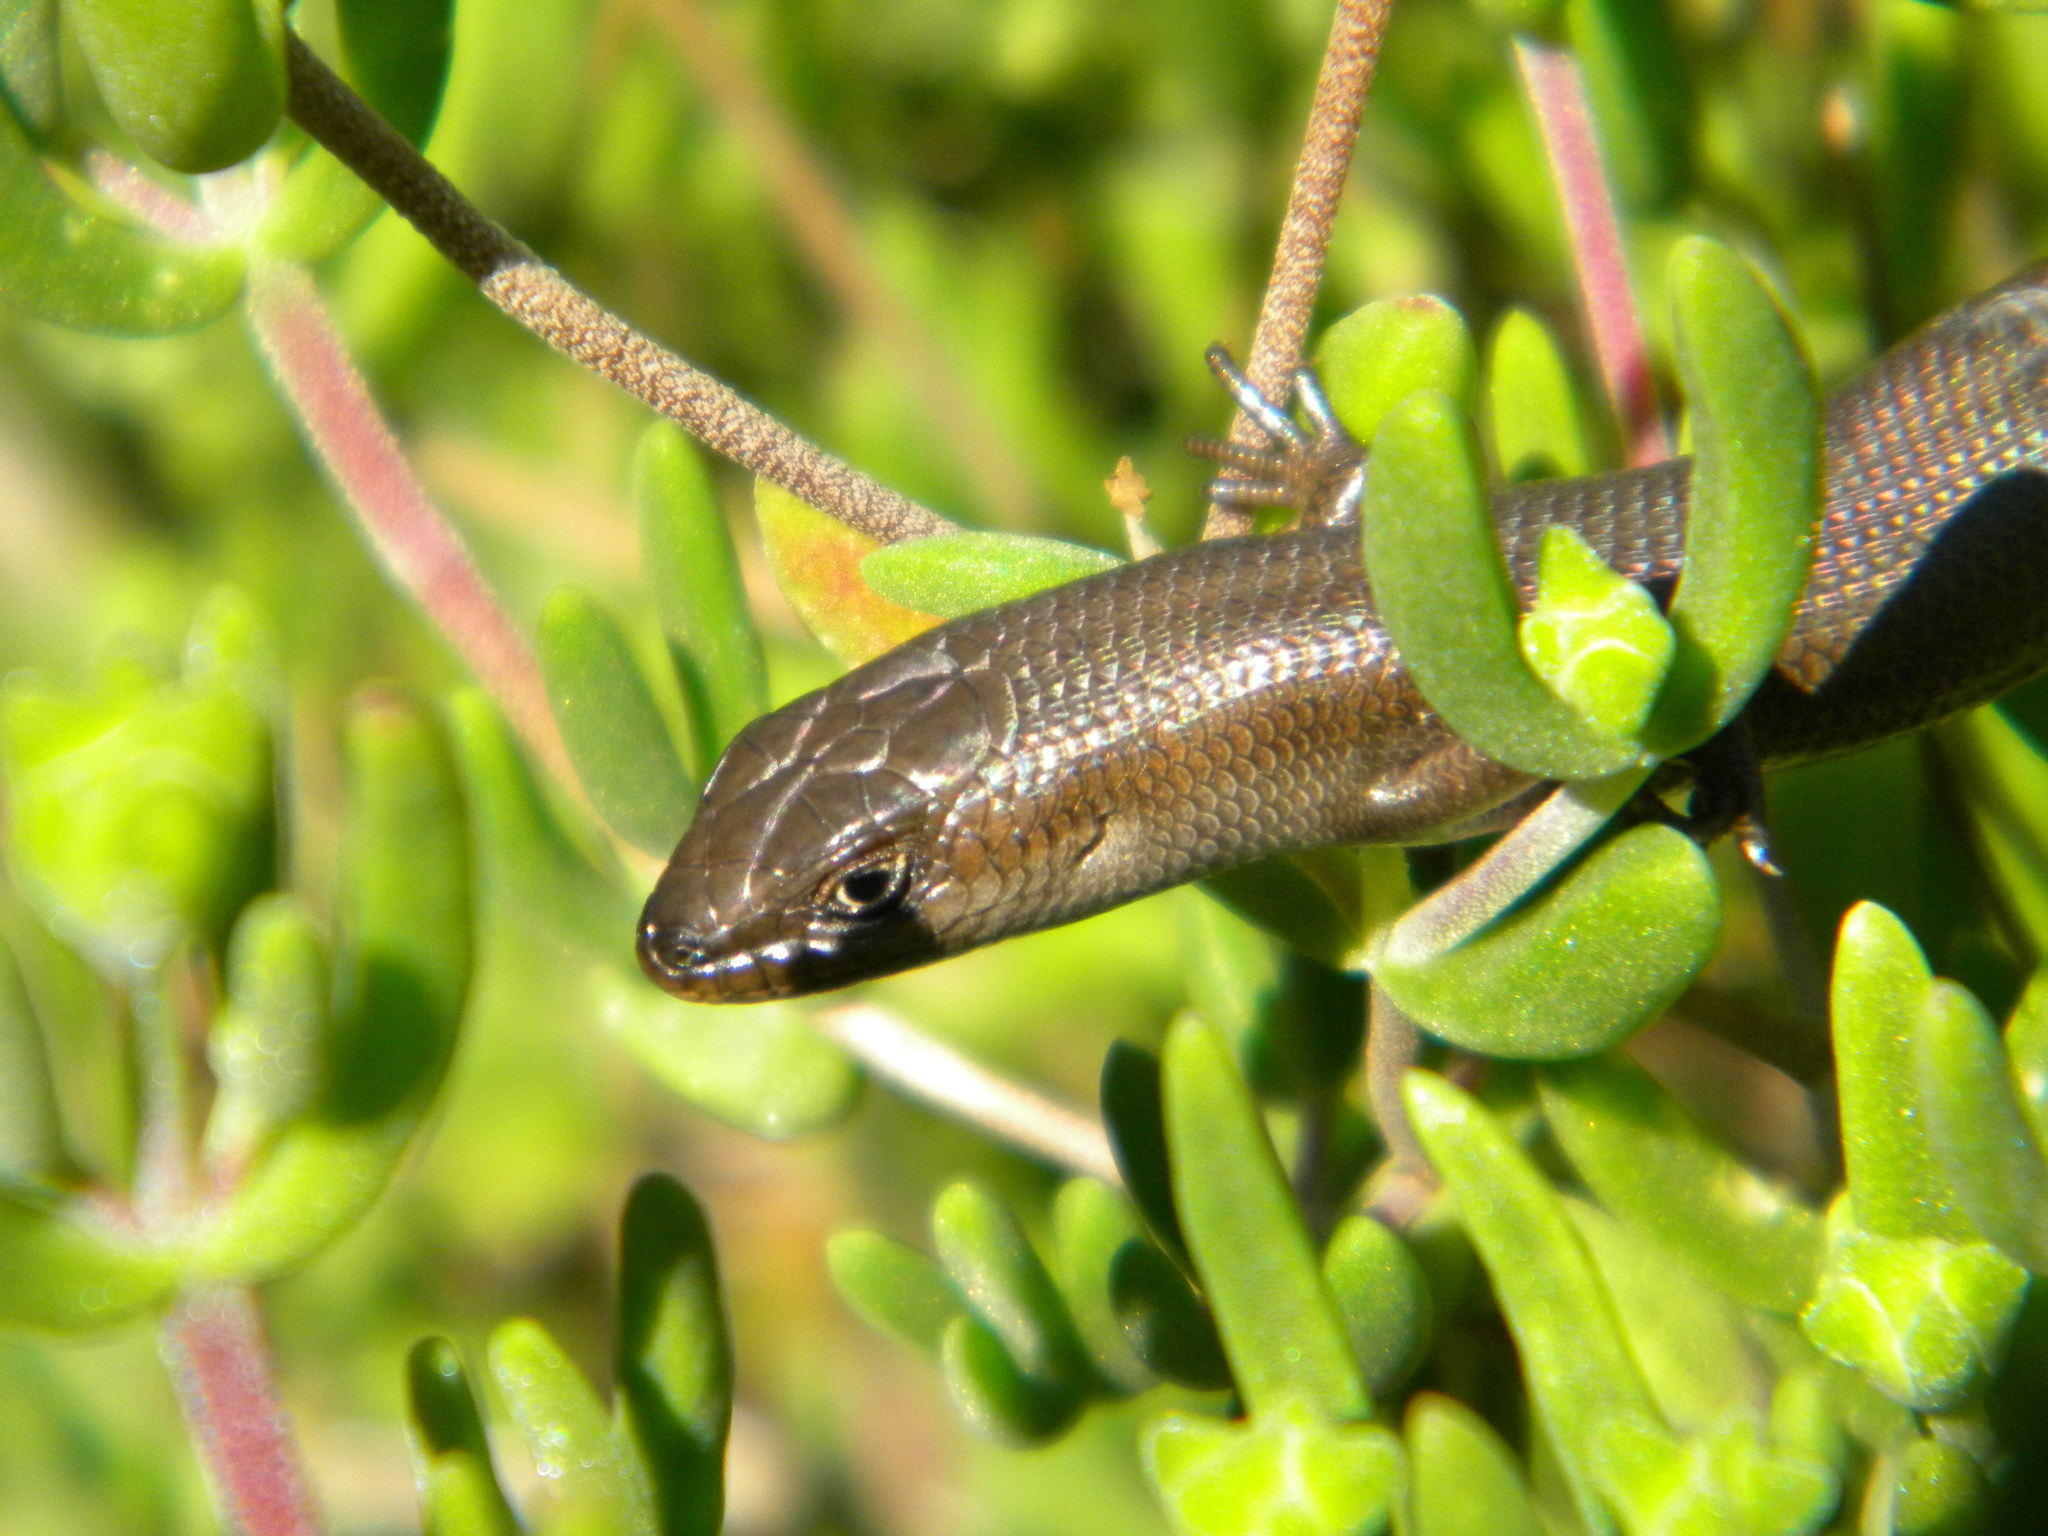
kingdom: Animalia
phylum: Chordata
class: Squamata
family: Scincidae
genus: Trachylepis
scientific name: Trachylepis capensis
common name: Cape skink
